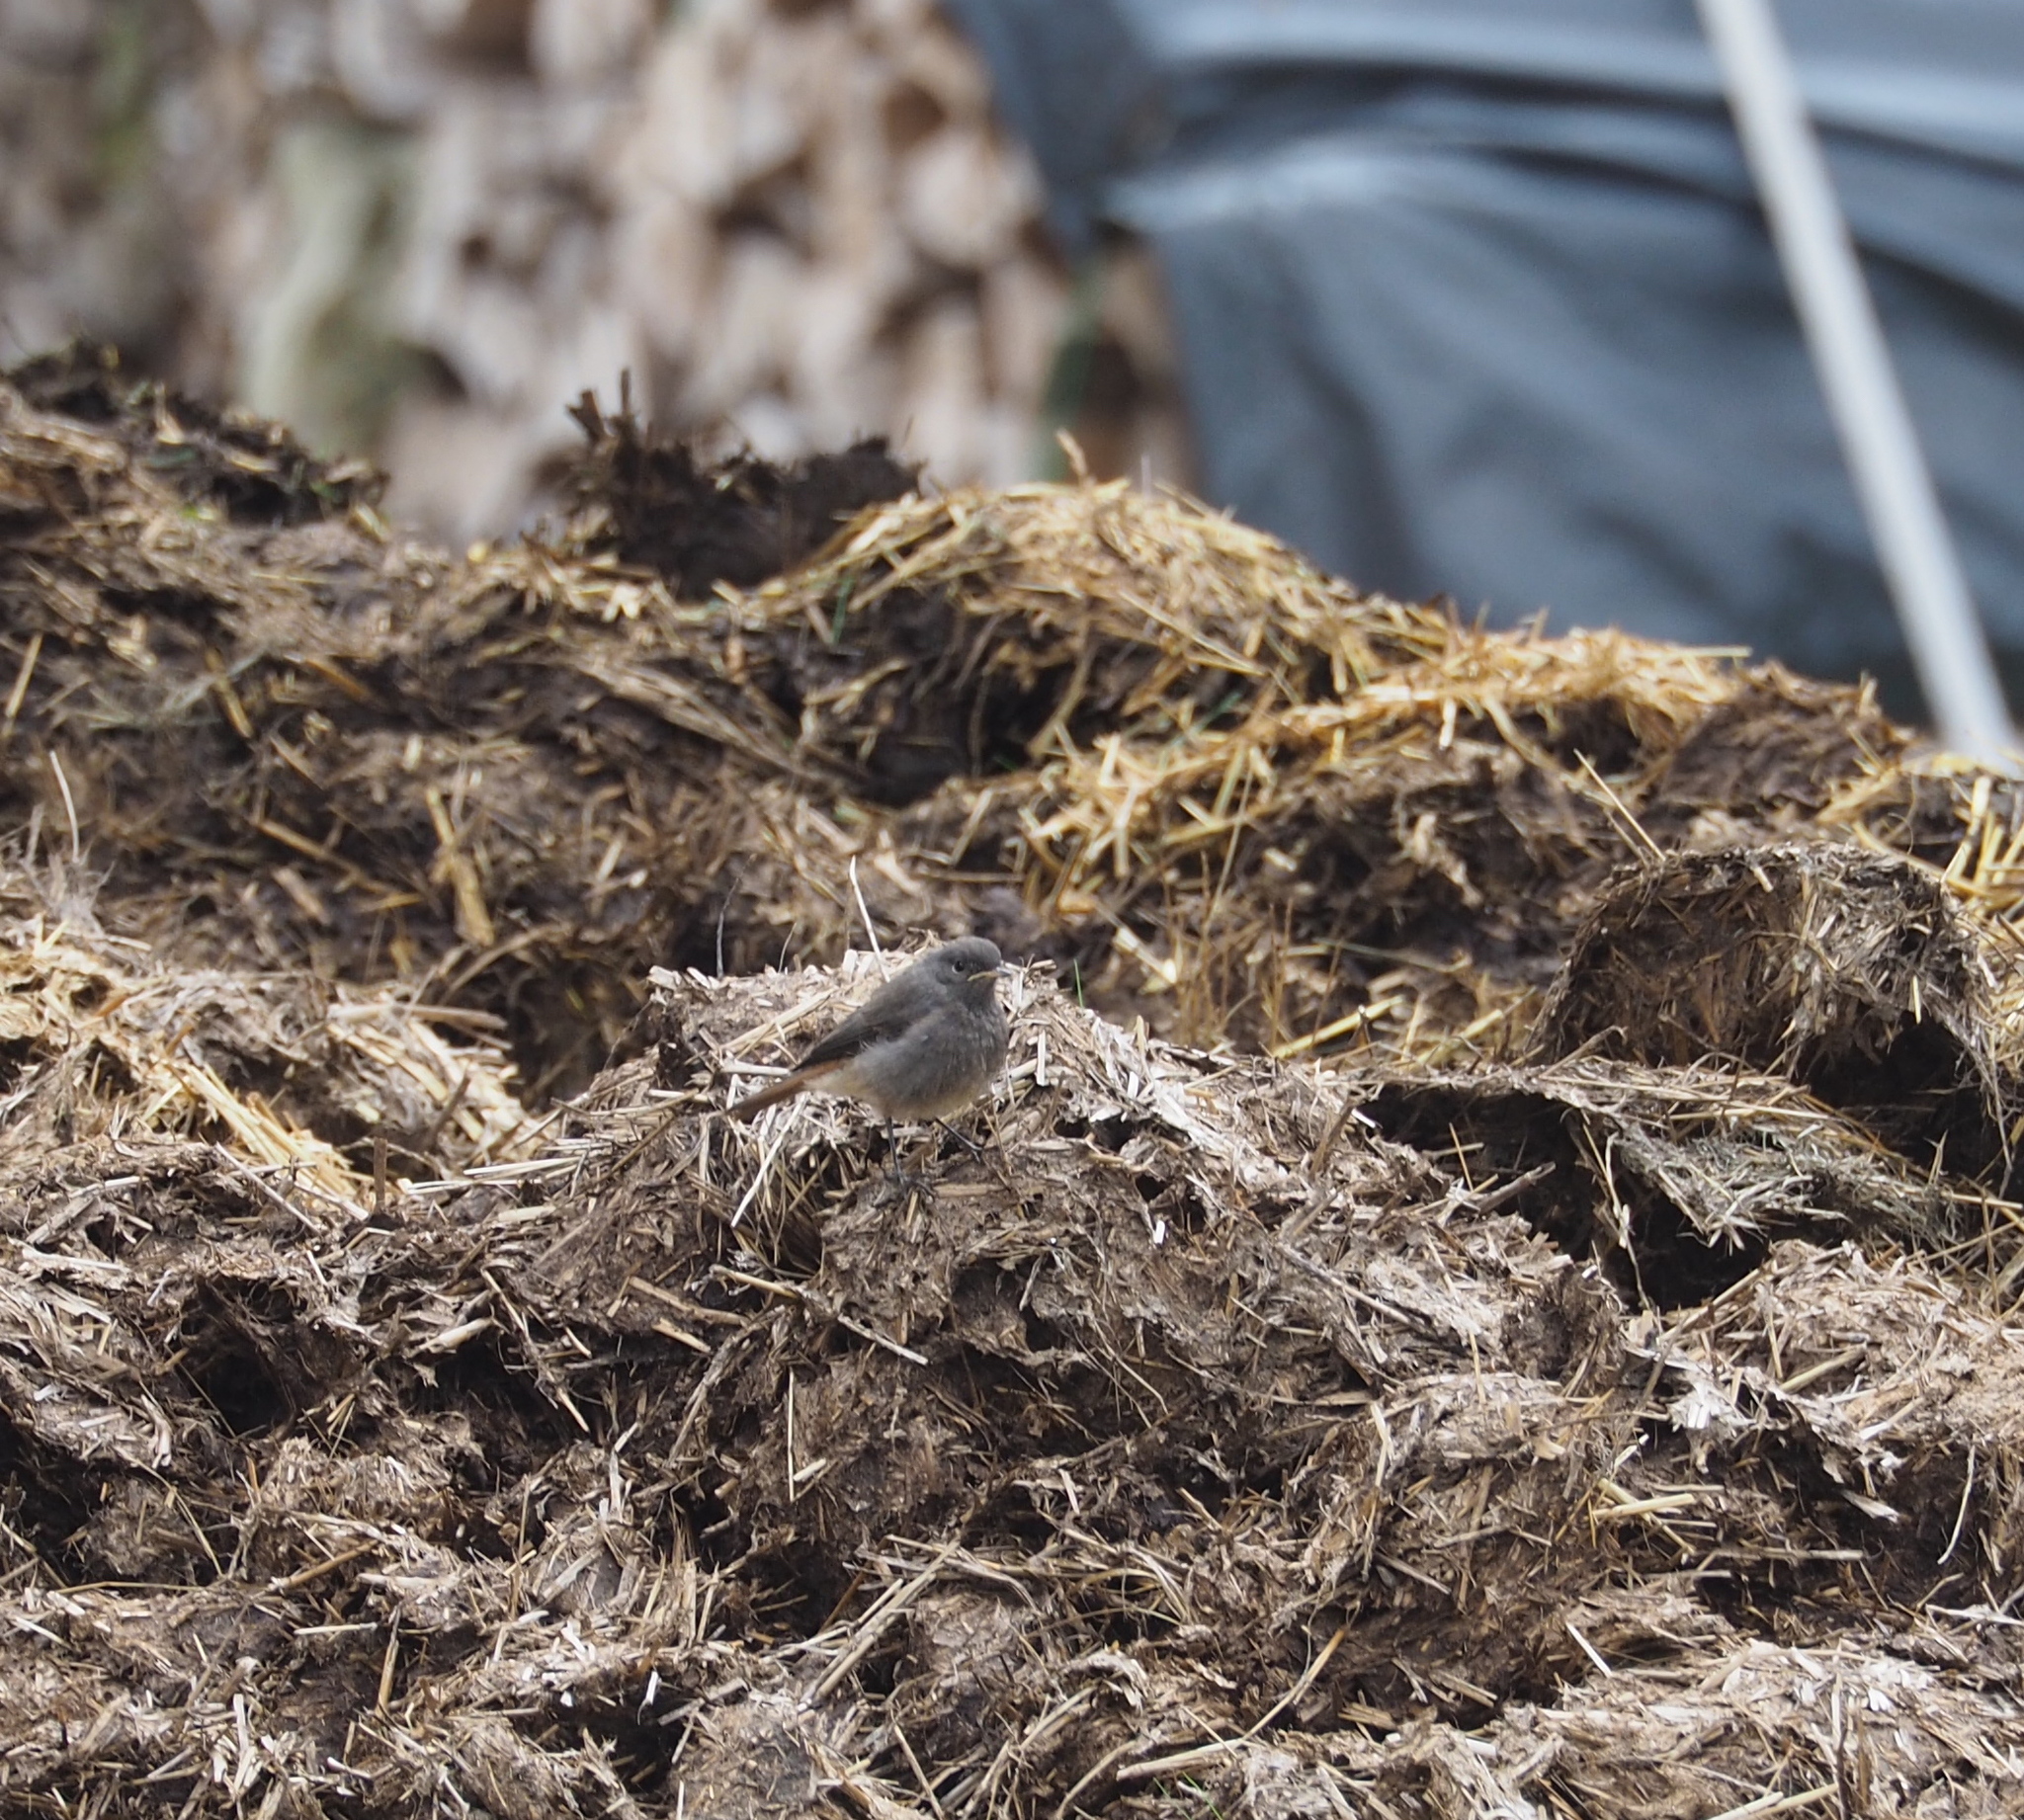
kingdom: Animalia
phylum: Chordata
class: Aves
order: Passeriformes
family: Muscicapidae
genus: Phoenicurus
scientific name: Phoenicurus ochruros
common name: Black redstart
